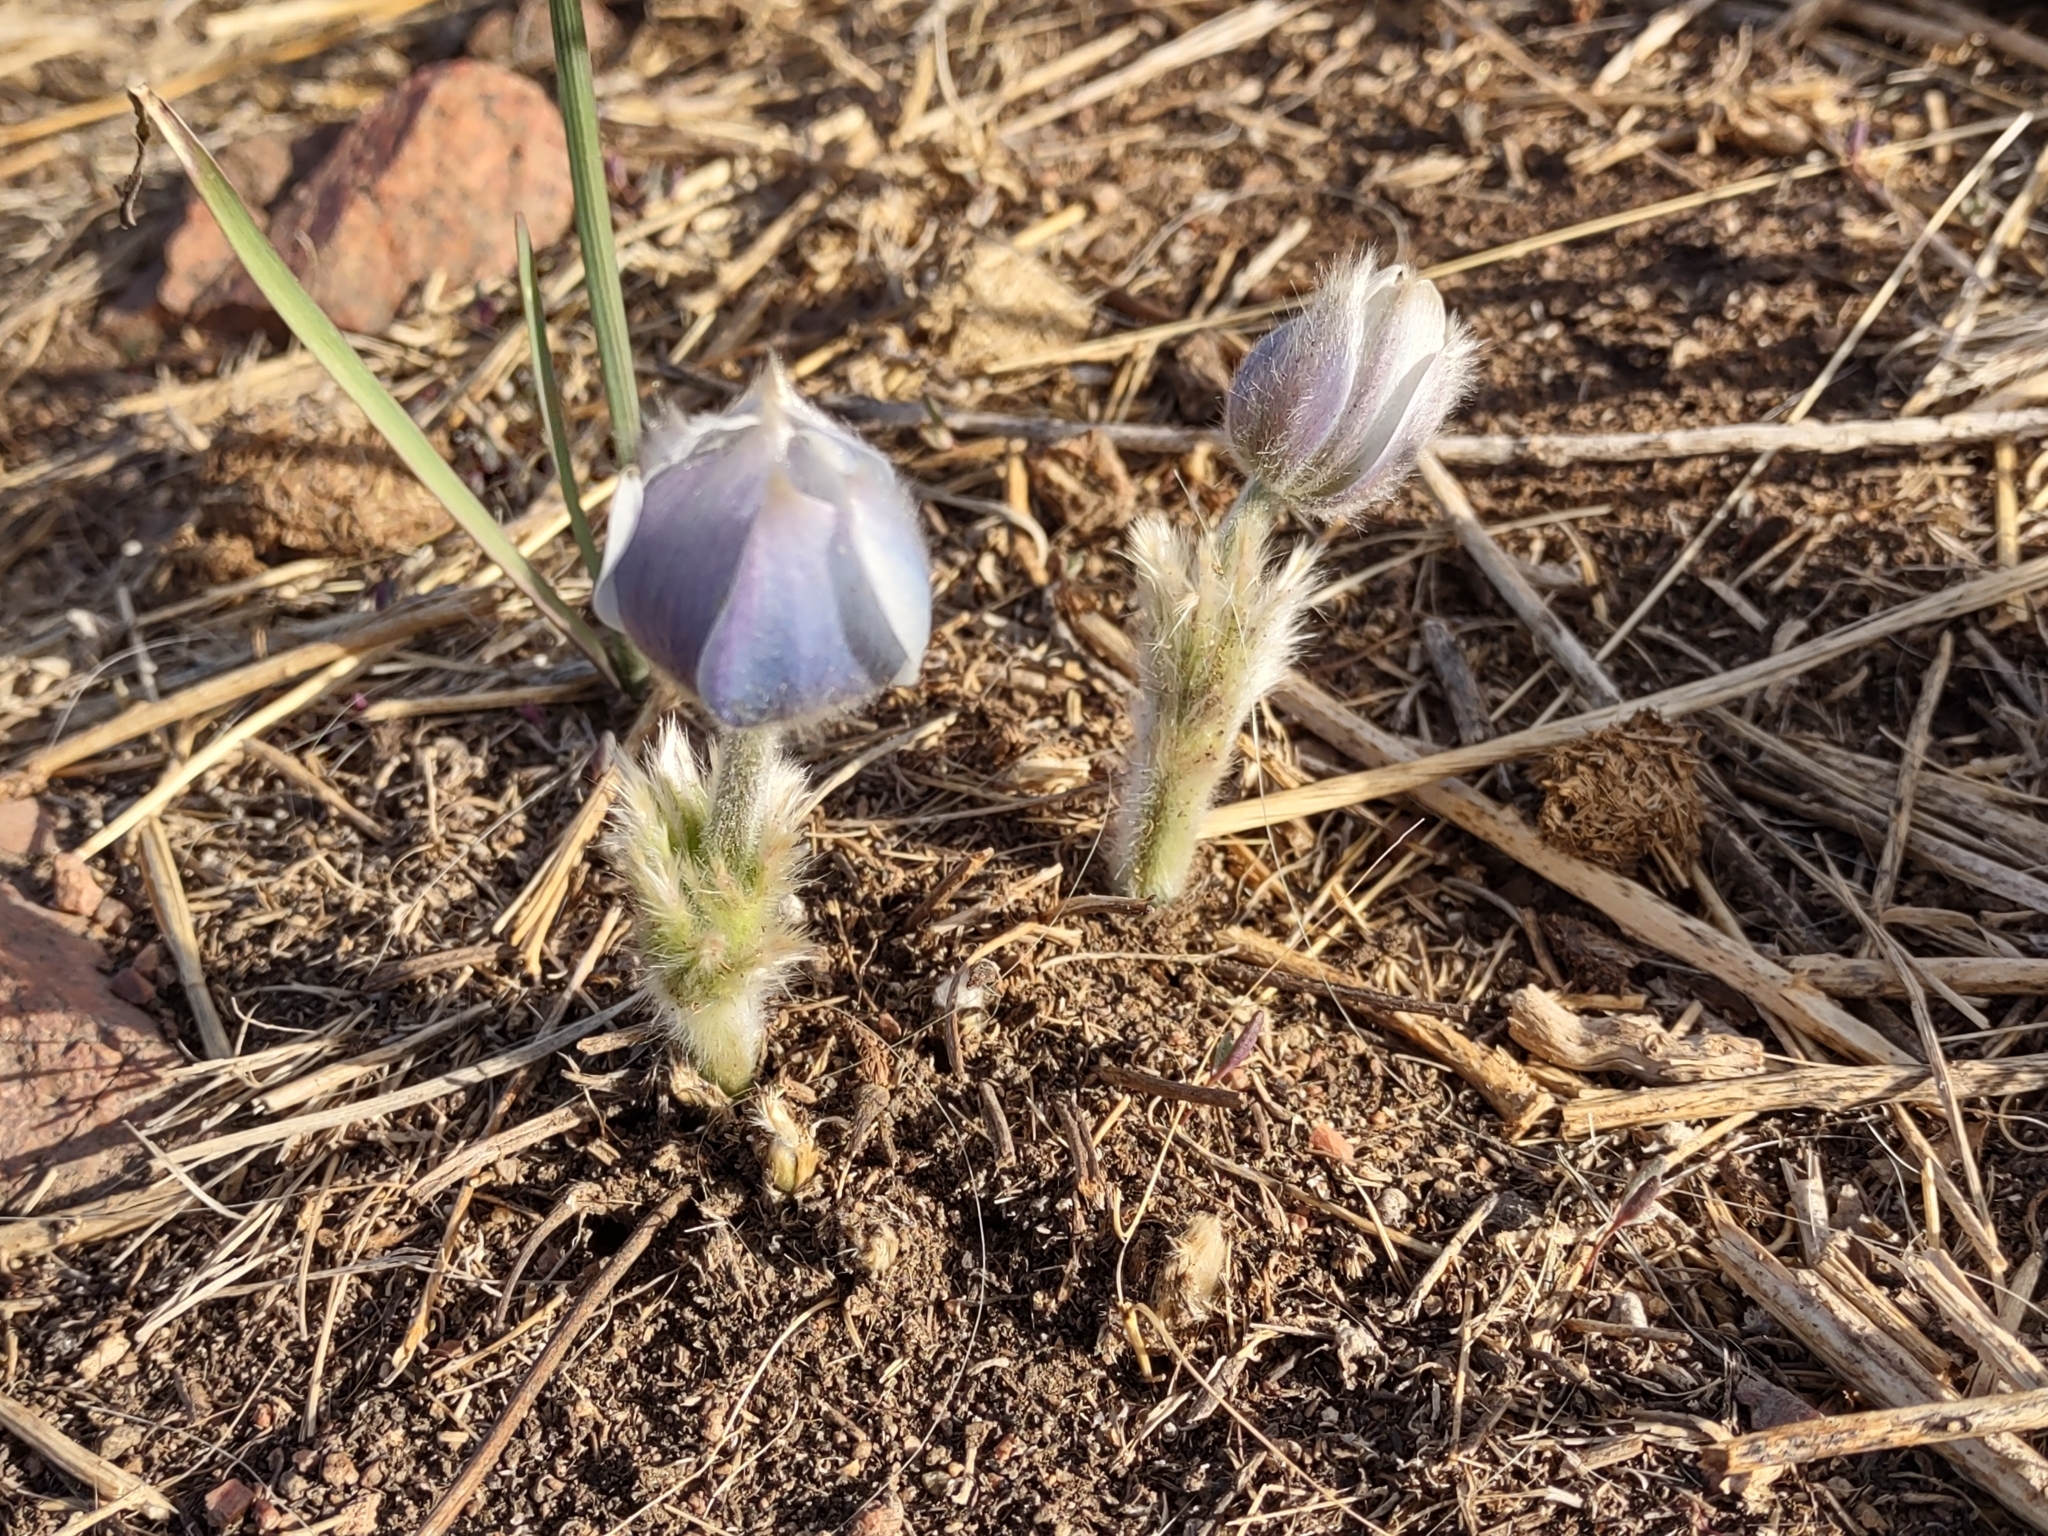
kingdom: Plantae
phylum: Tracheophyta
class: Magnoliopsida
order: Ranunculales
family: Ranunculaceae
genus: Pulsatilla
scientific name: Pulsatilla nuttalliana
